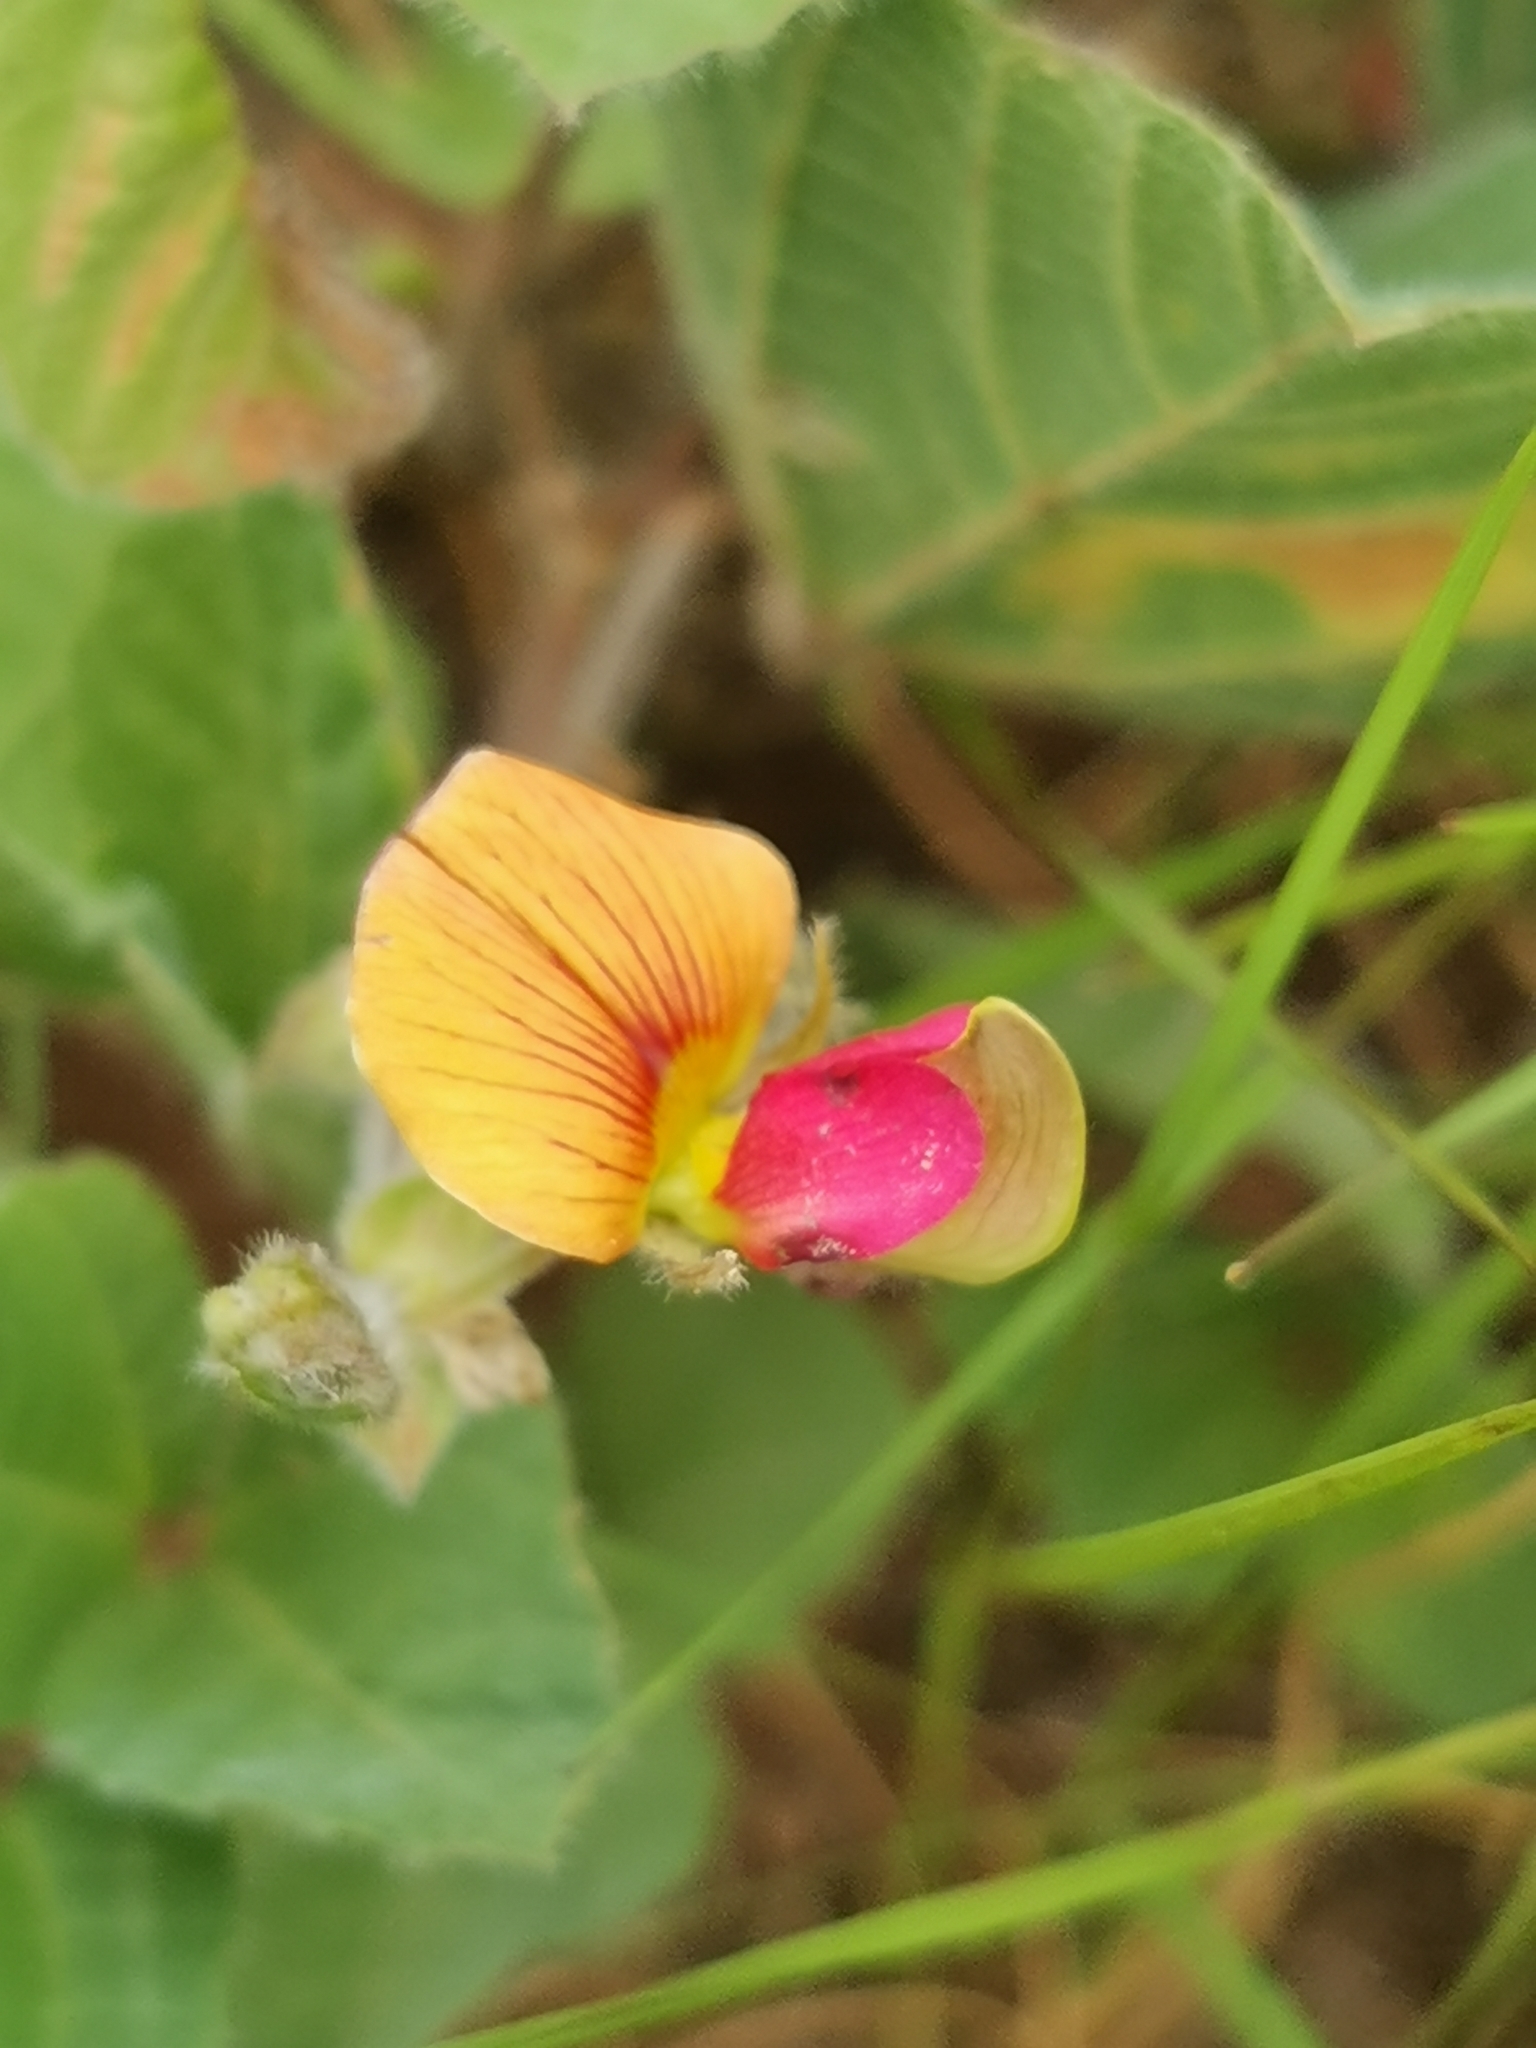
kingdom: Plantae
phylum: Tracheophyta
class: Magnoliopsida
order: Fabales
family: Fabaceae
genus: Rhynchosia
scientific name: Rhynchosia monophylla
